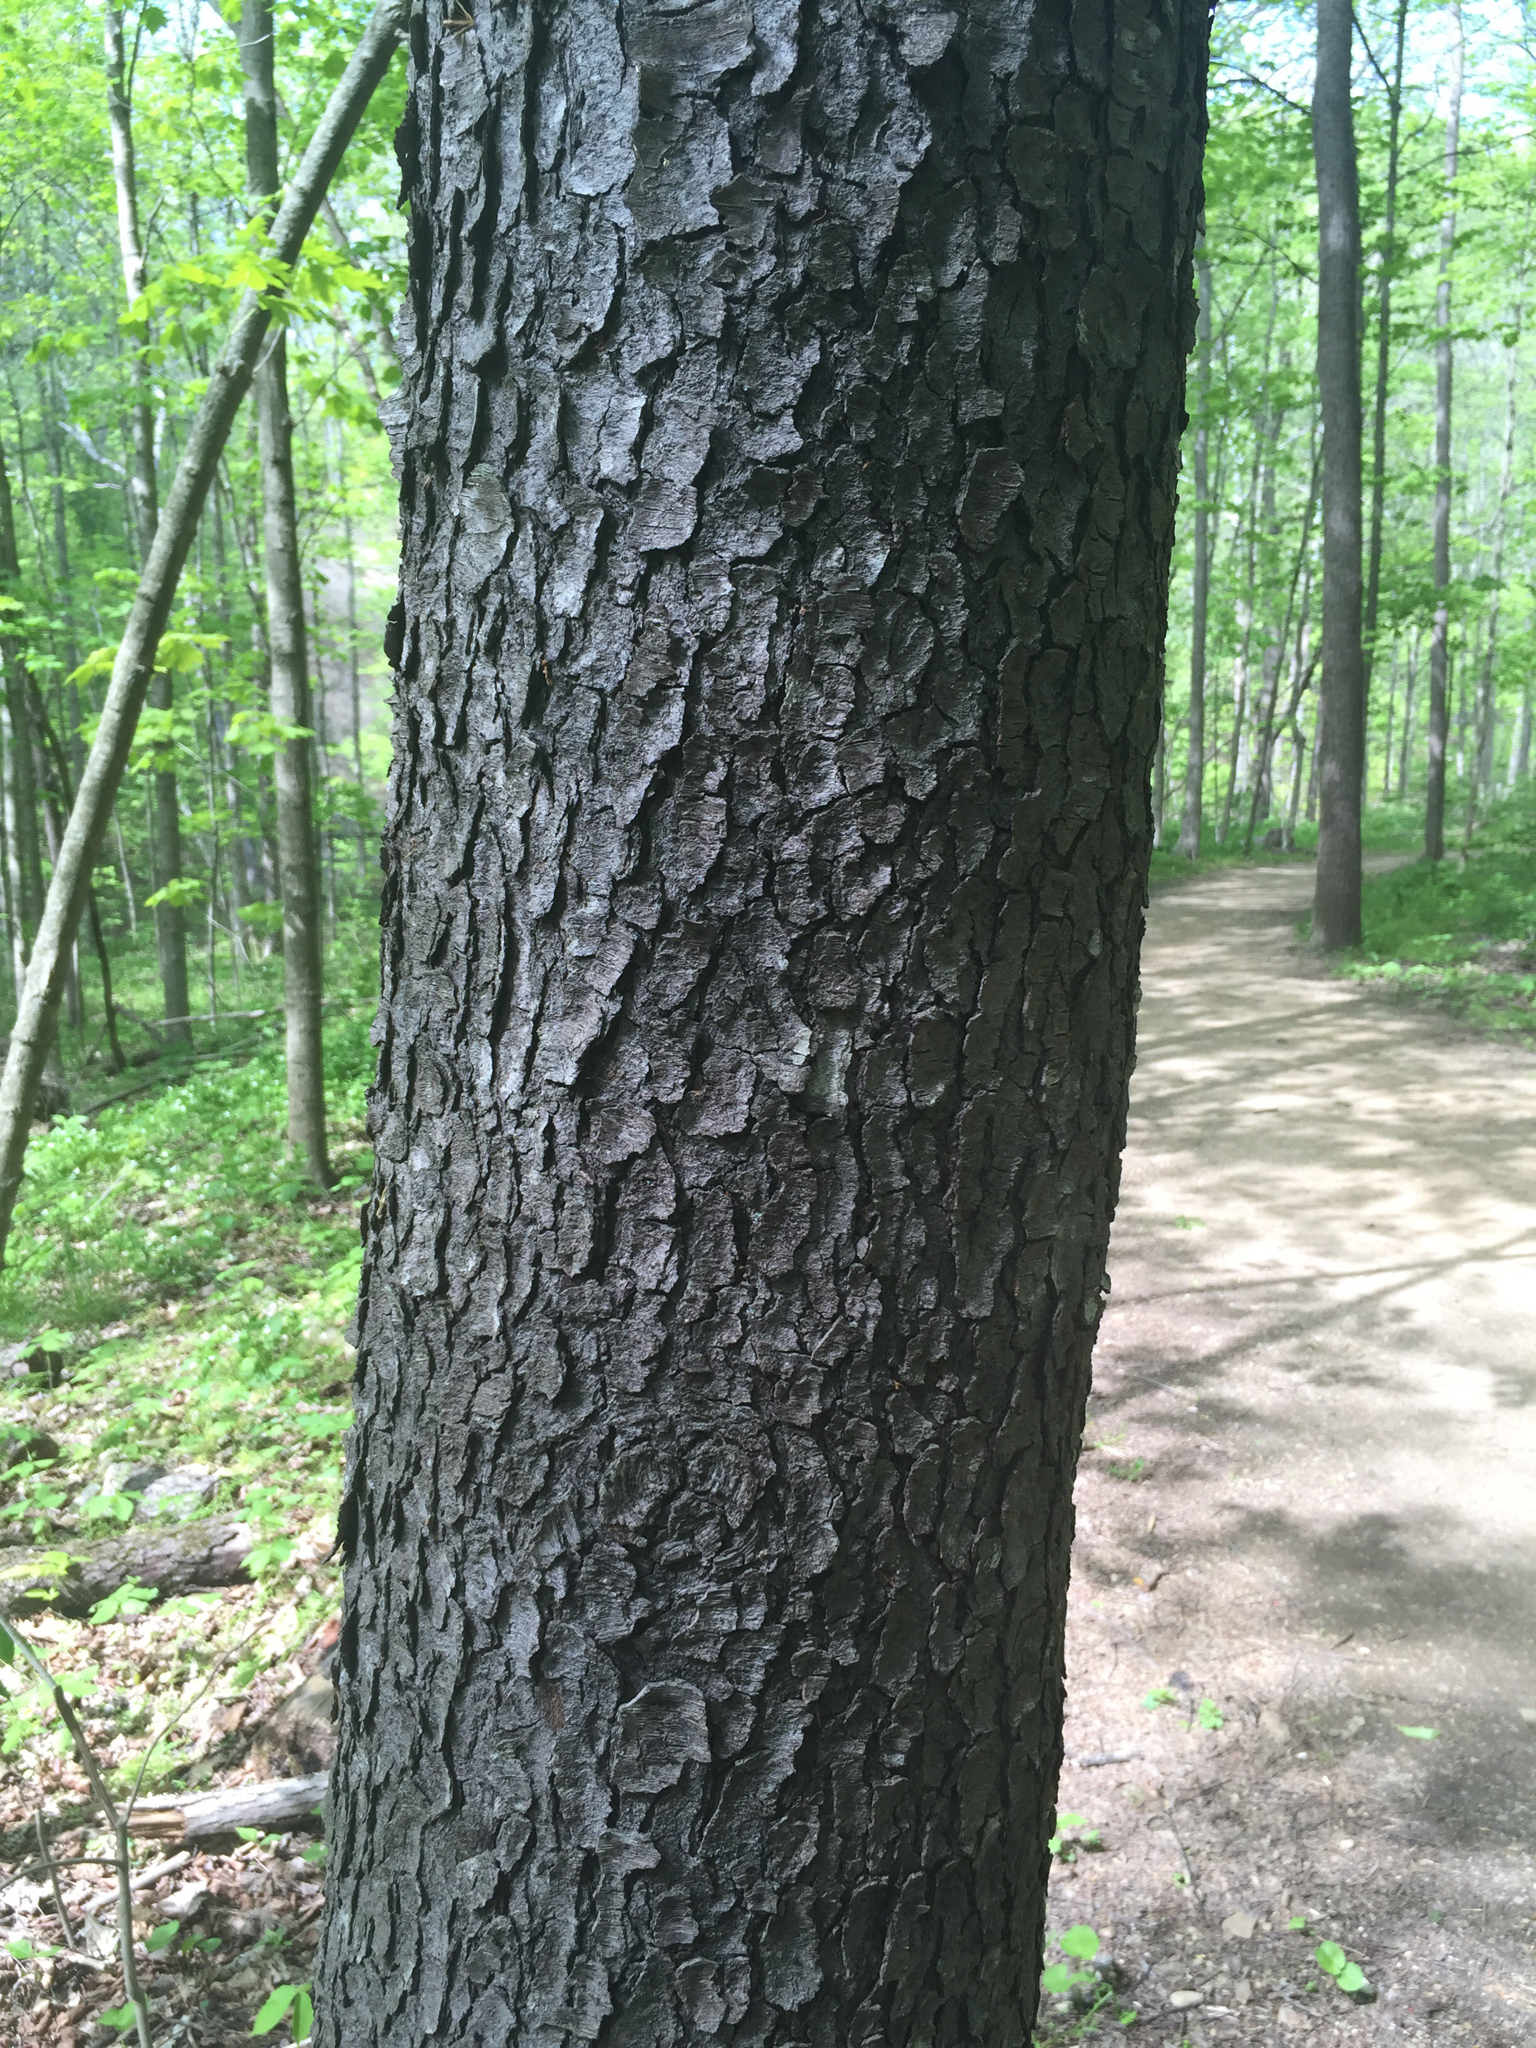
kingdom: Plantae
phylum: Tracheophyta
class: Magnoliopsida
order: Rosales
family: Rosaceae
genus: Prunus
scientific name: Prunus serotina
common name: Black cherry
